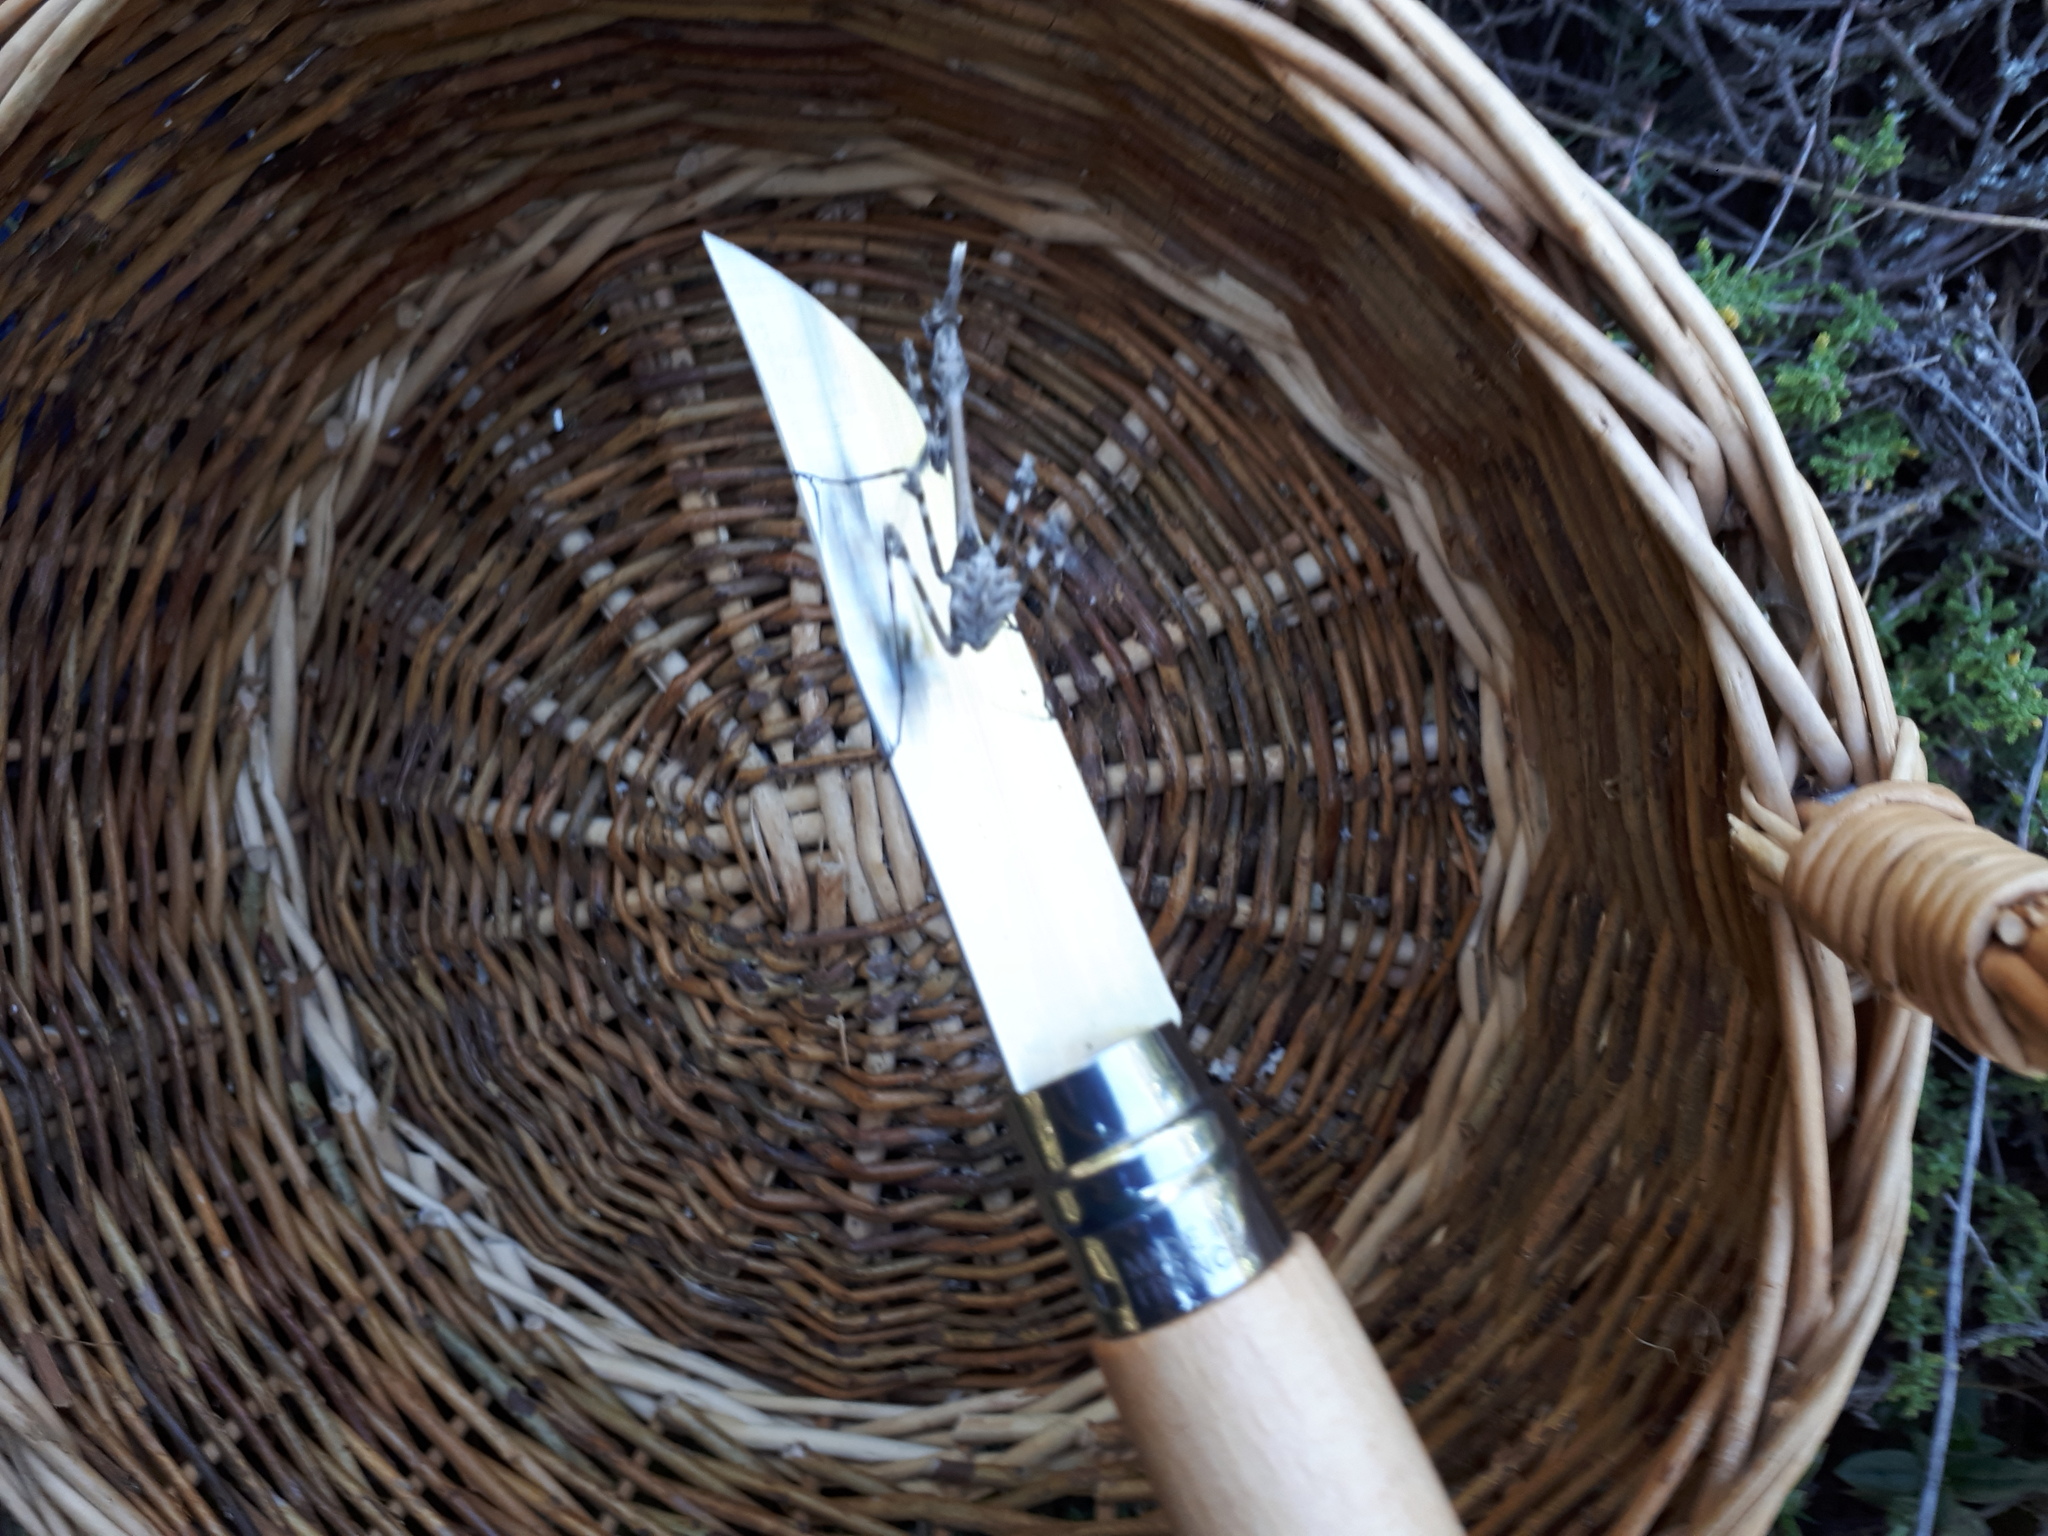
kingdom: Animalia
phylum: Arthropoda
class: Insecta
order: Mantodea
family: Empusidae
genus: Empusa
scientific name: Empusa pennata
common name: Conehead mantis
